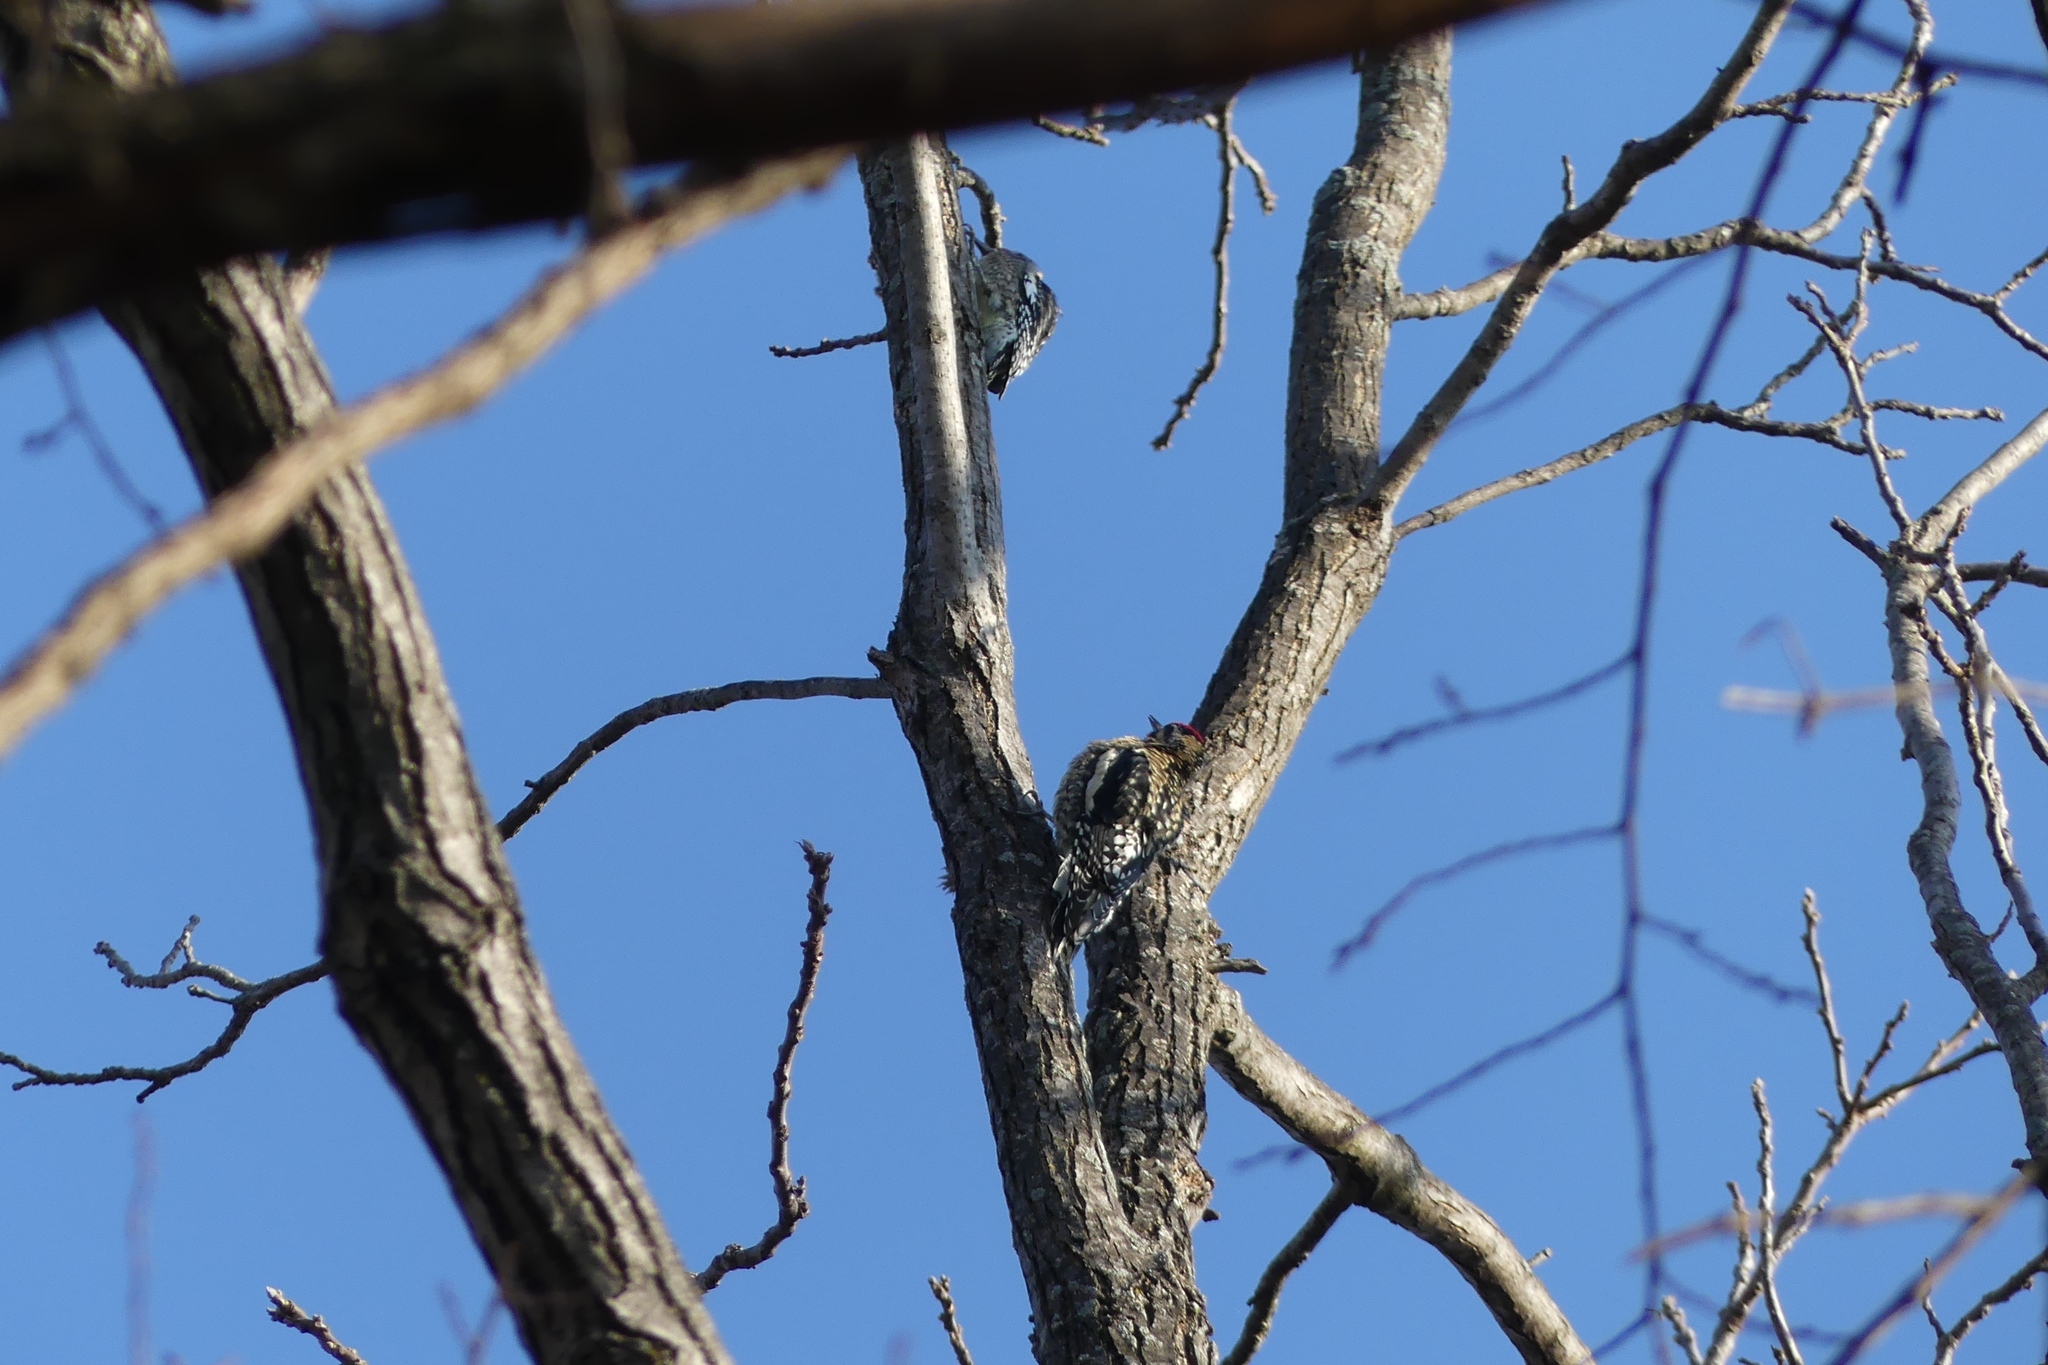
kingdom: Animalia
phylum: Chordata
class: Aves
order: Piciformes
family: Picidae
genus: Sphyrapicus
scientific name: Sphyrapicus varius
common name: Yellow-bellied sapsucker
